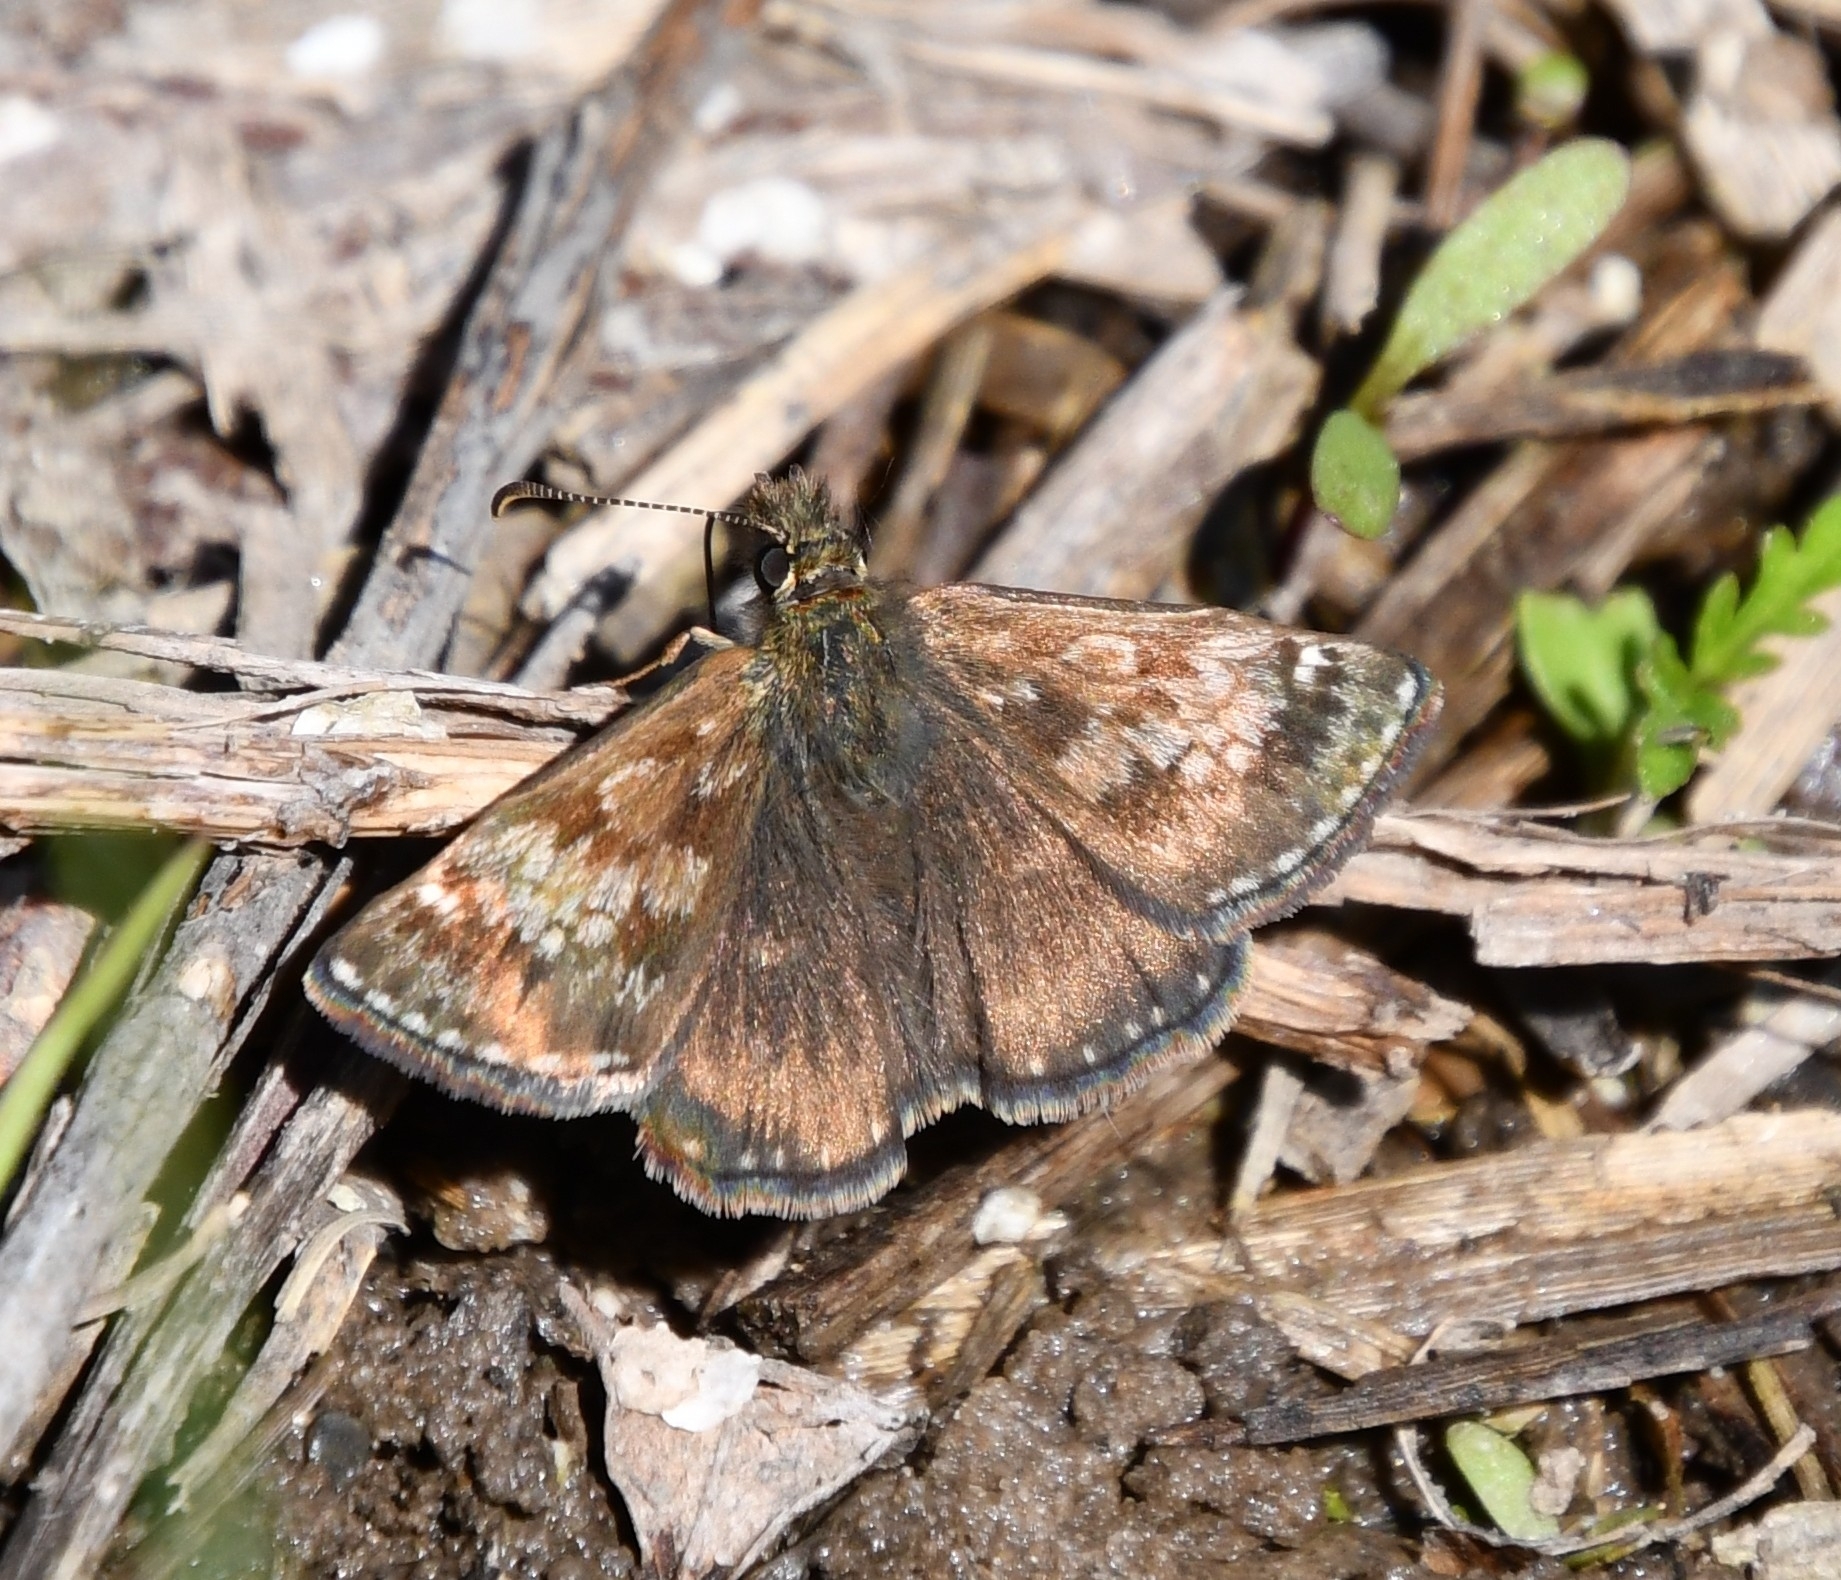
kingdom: Animalia
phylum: Arthropoda
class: Insecta
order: Lepidoptera
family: Hesperiidae
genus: Erynnis
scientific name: Erynnis tages
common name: Dingy skipper
